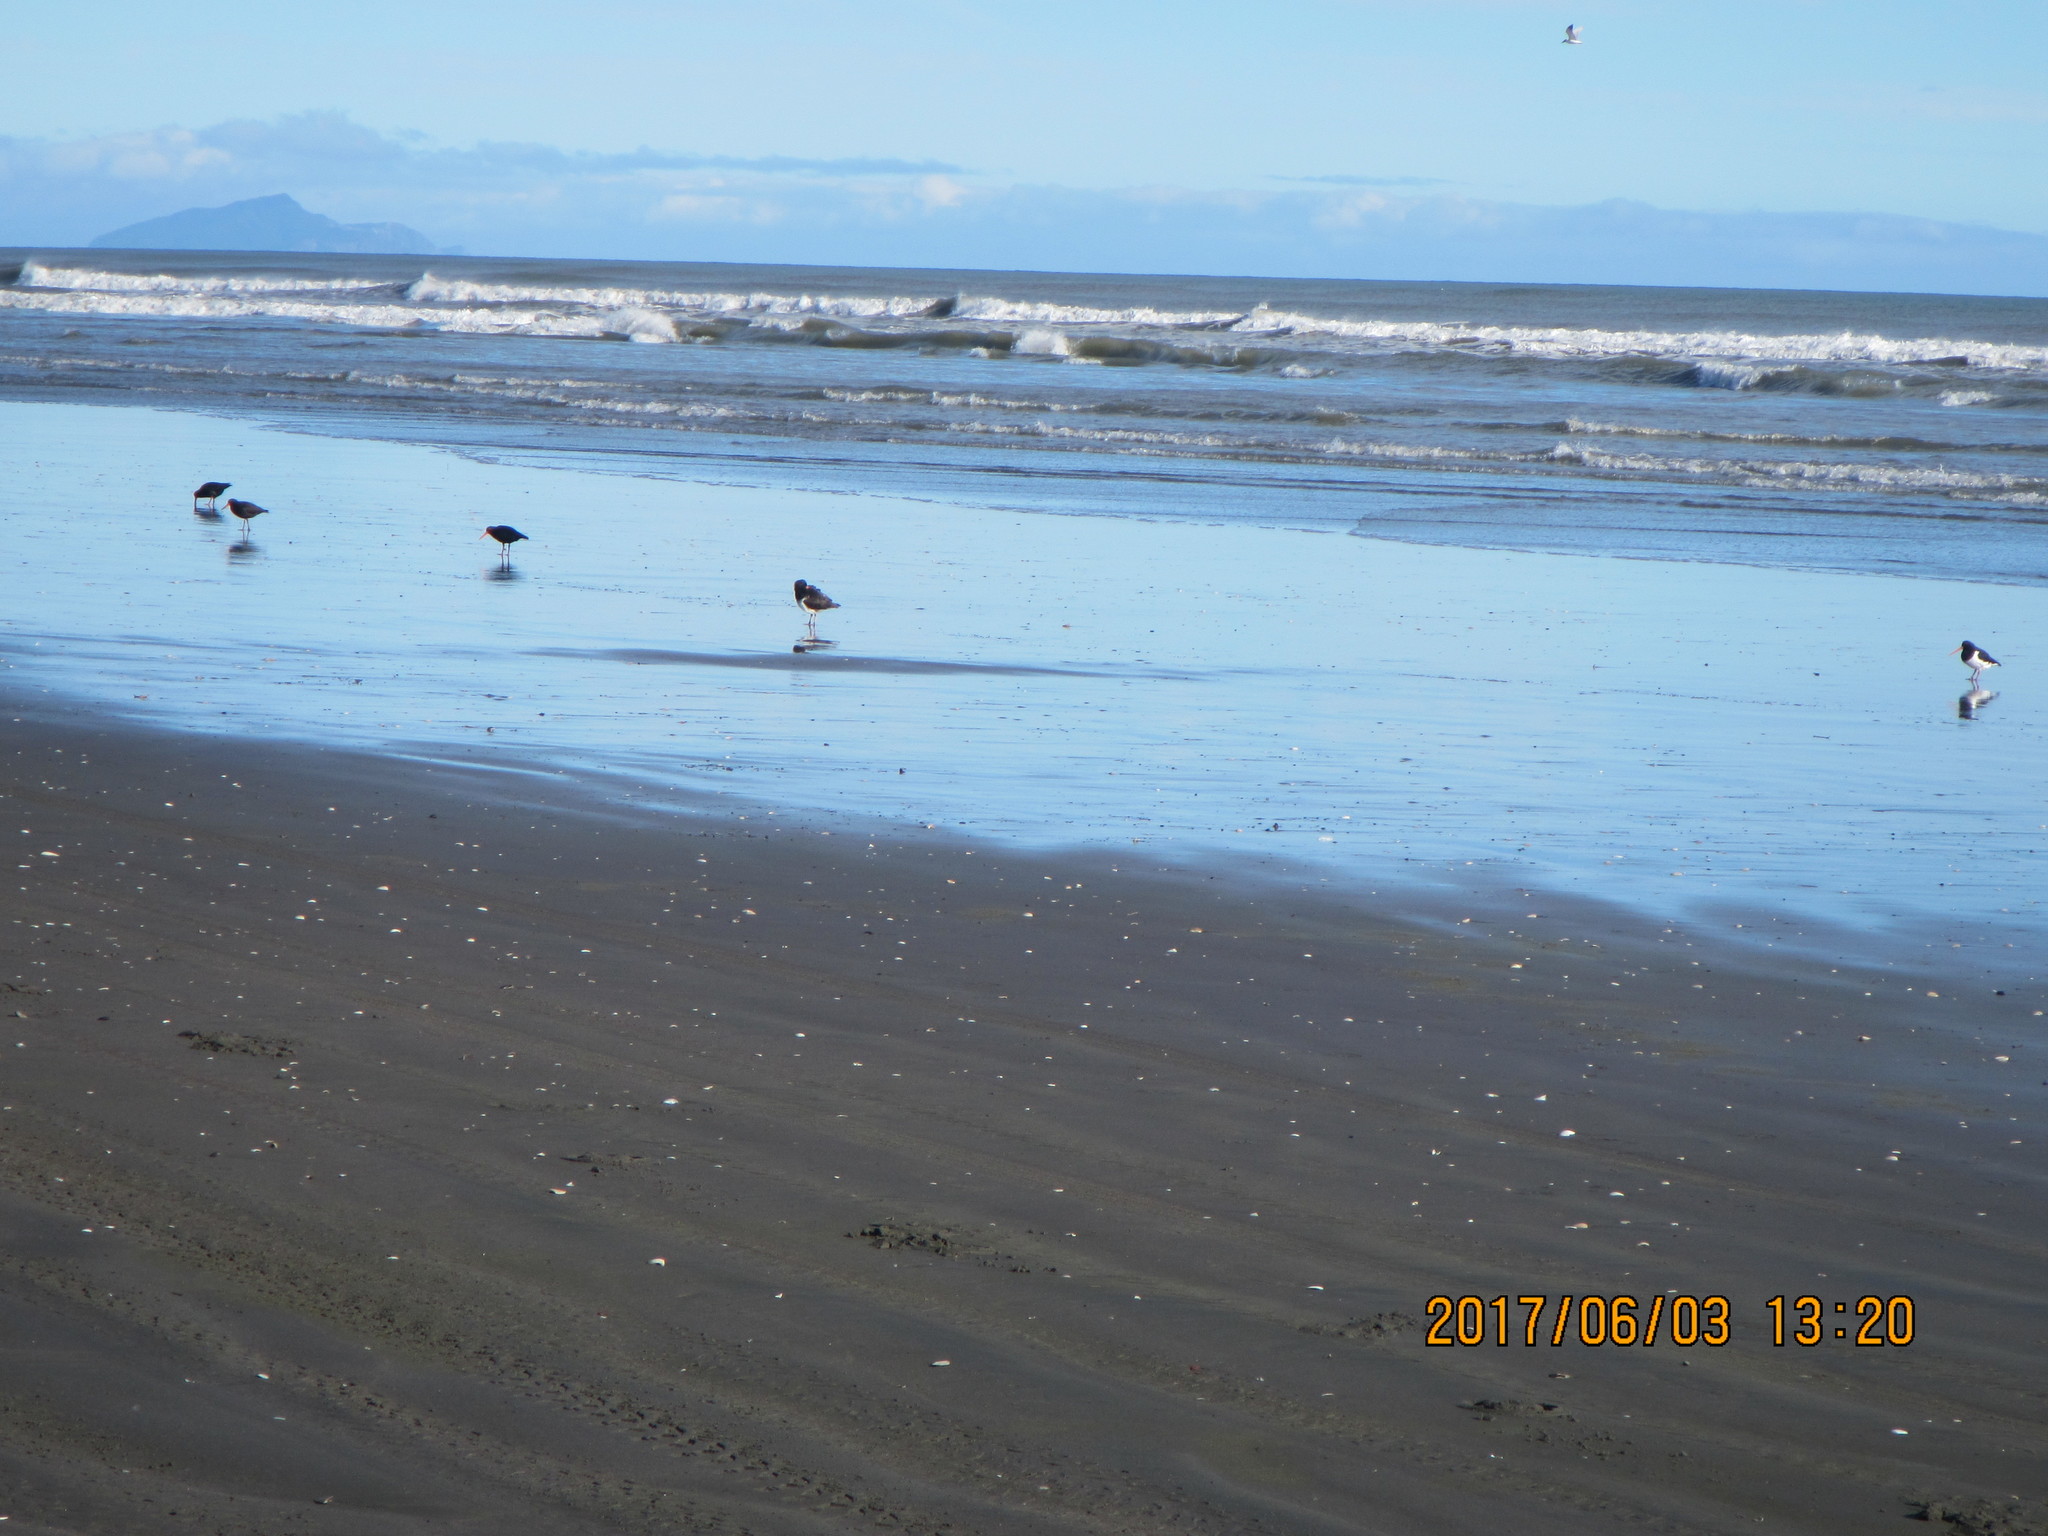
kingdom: Animalia
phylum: Chordata
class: Aves
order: Charadriiformes
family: Haematopodidae
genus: Haematopus
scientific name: Haematopus unicolor
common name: Variable oystercatcher
